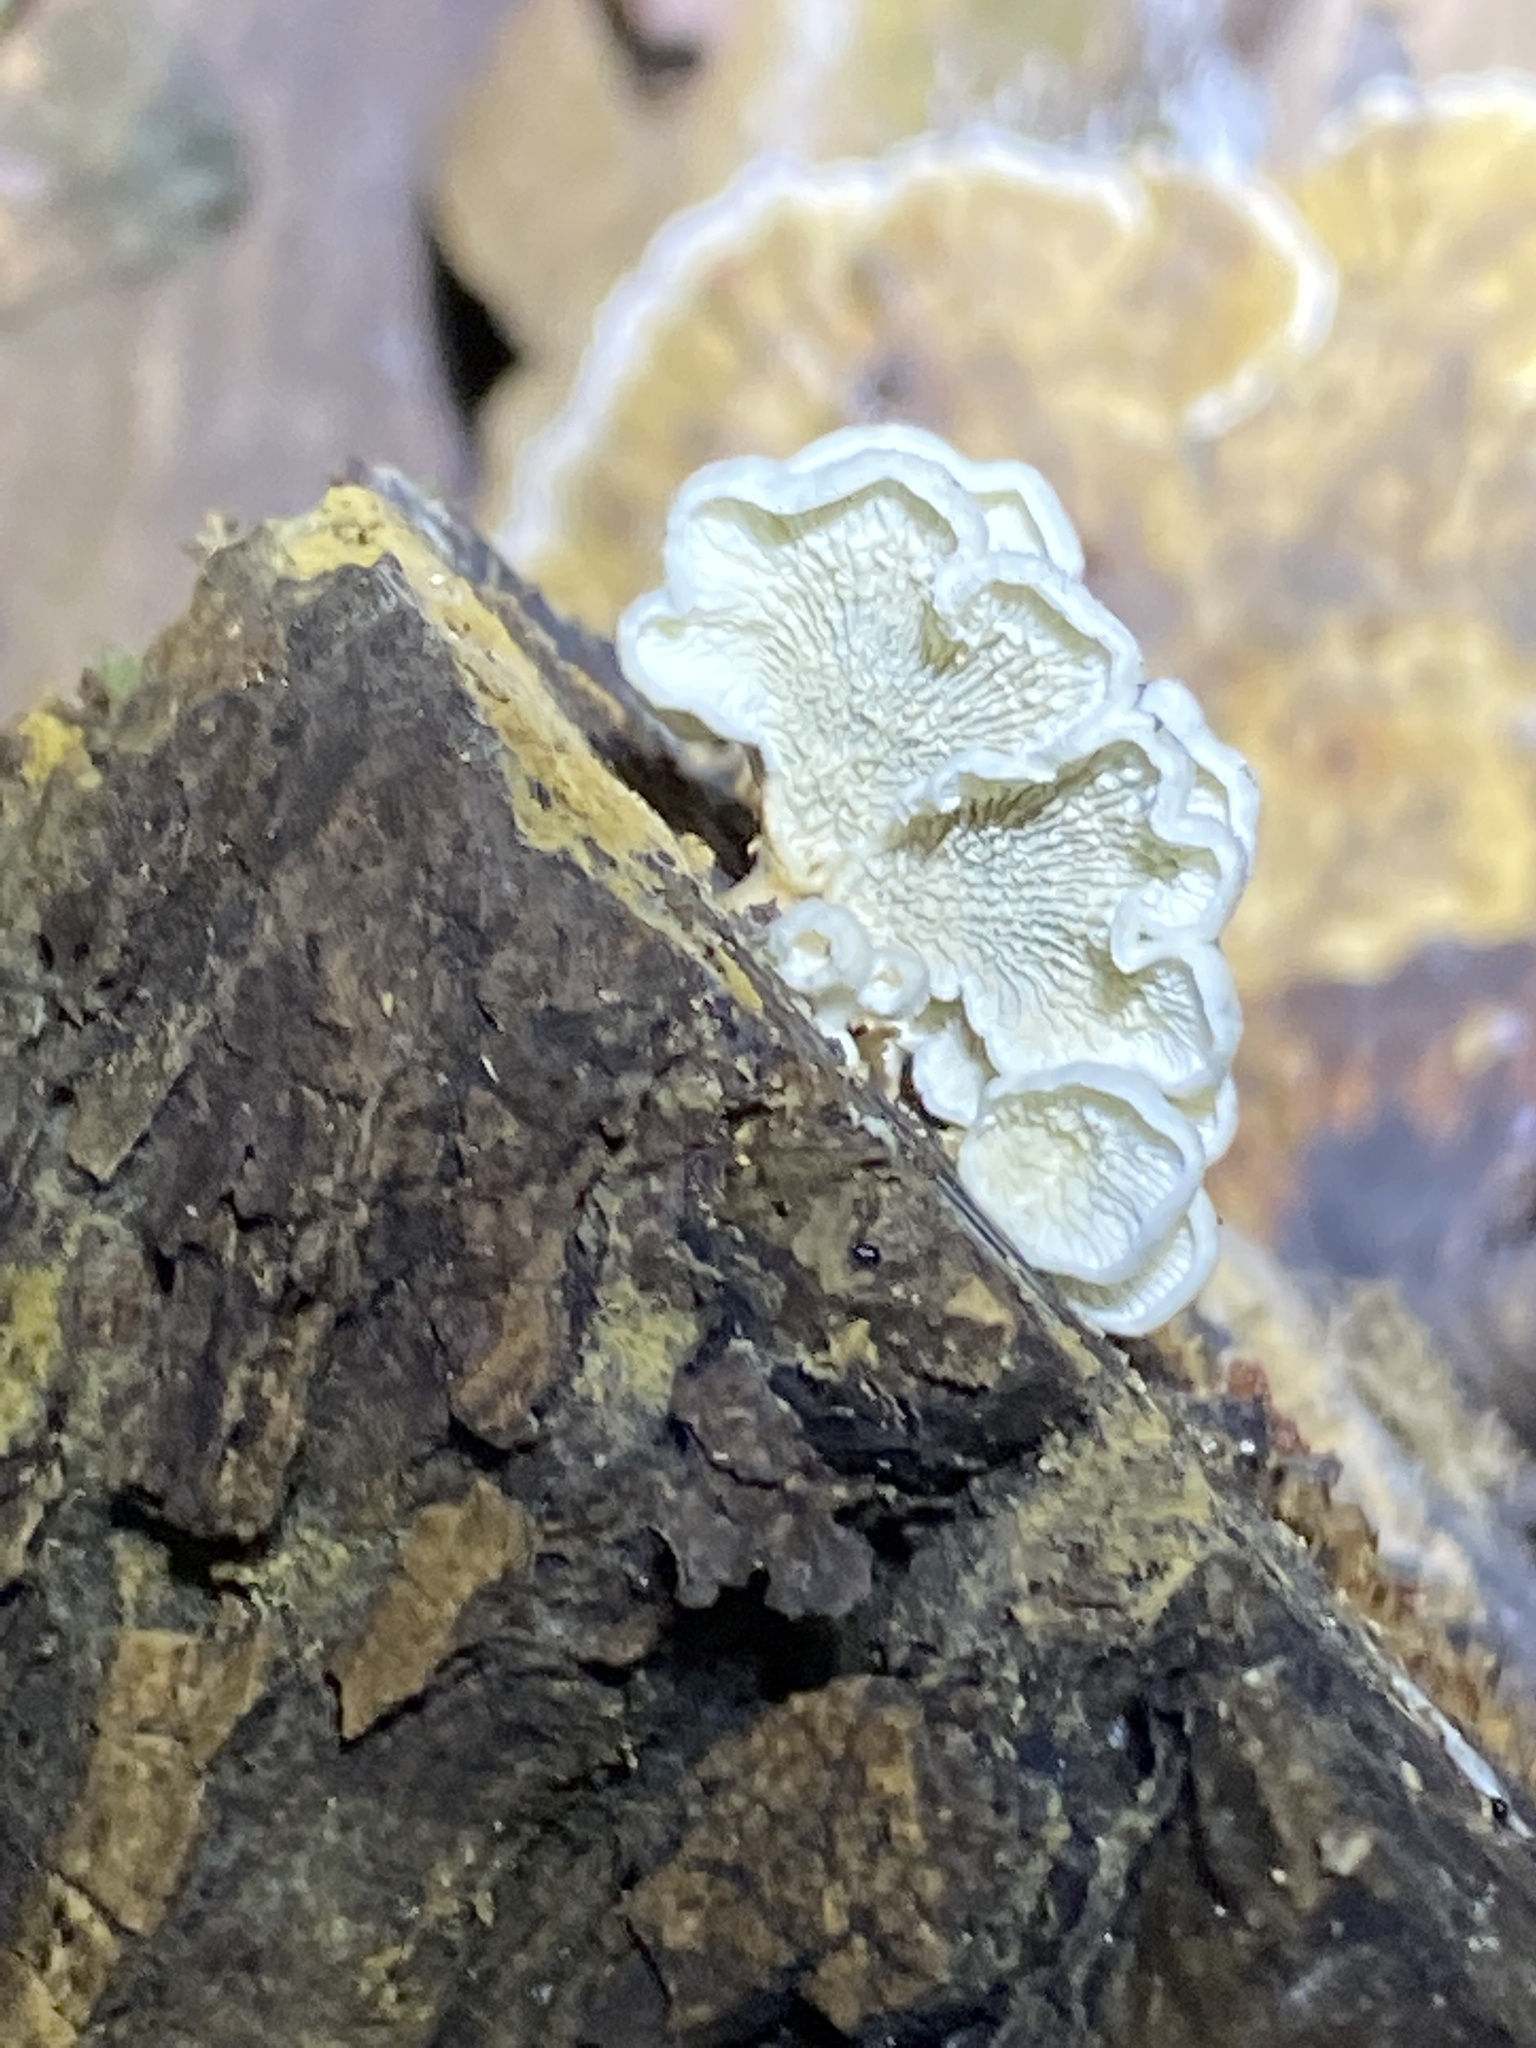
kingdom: Fungi
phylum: Basidiomycota
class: Agaricomycetes
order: Amylocorticiales
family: Amylocorticiaceae
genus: Plicaturopsis
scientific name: Plicaturopsis crispa
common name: Crimped gill
